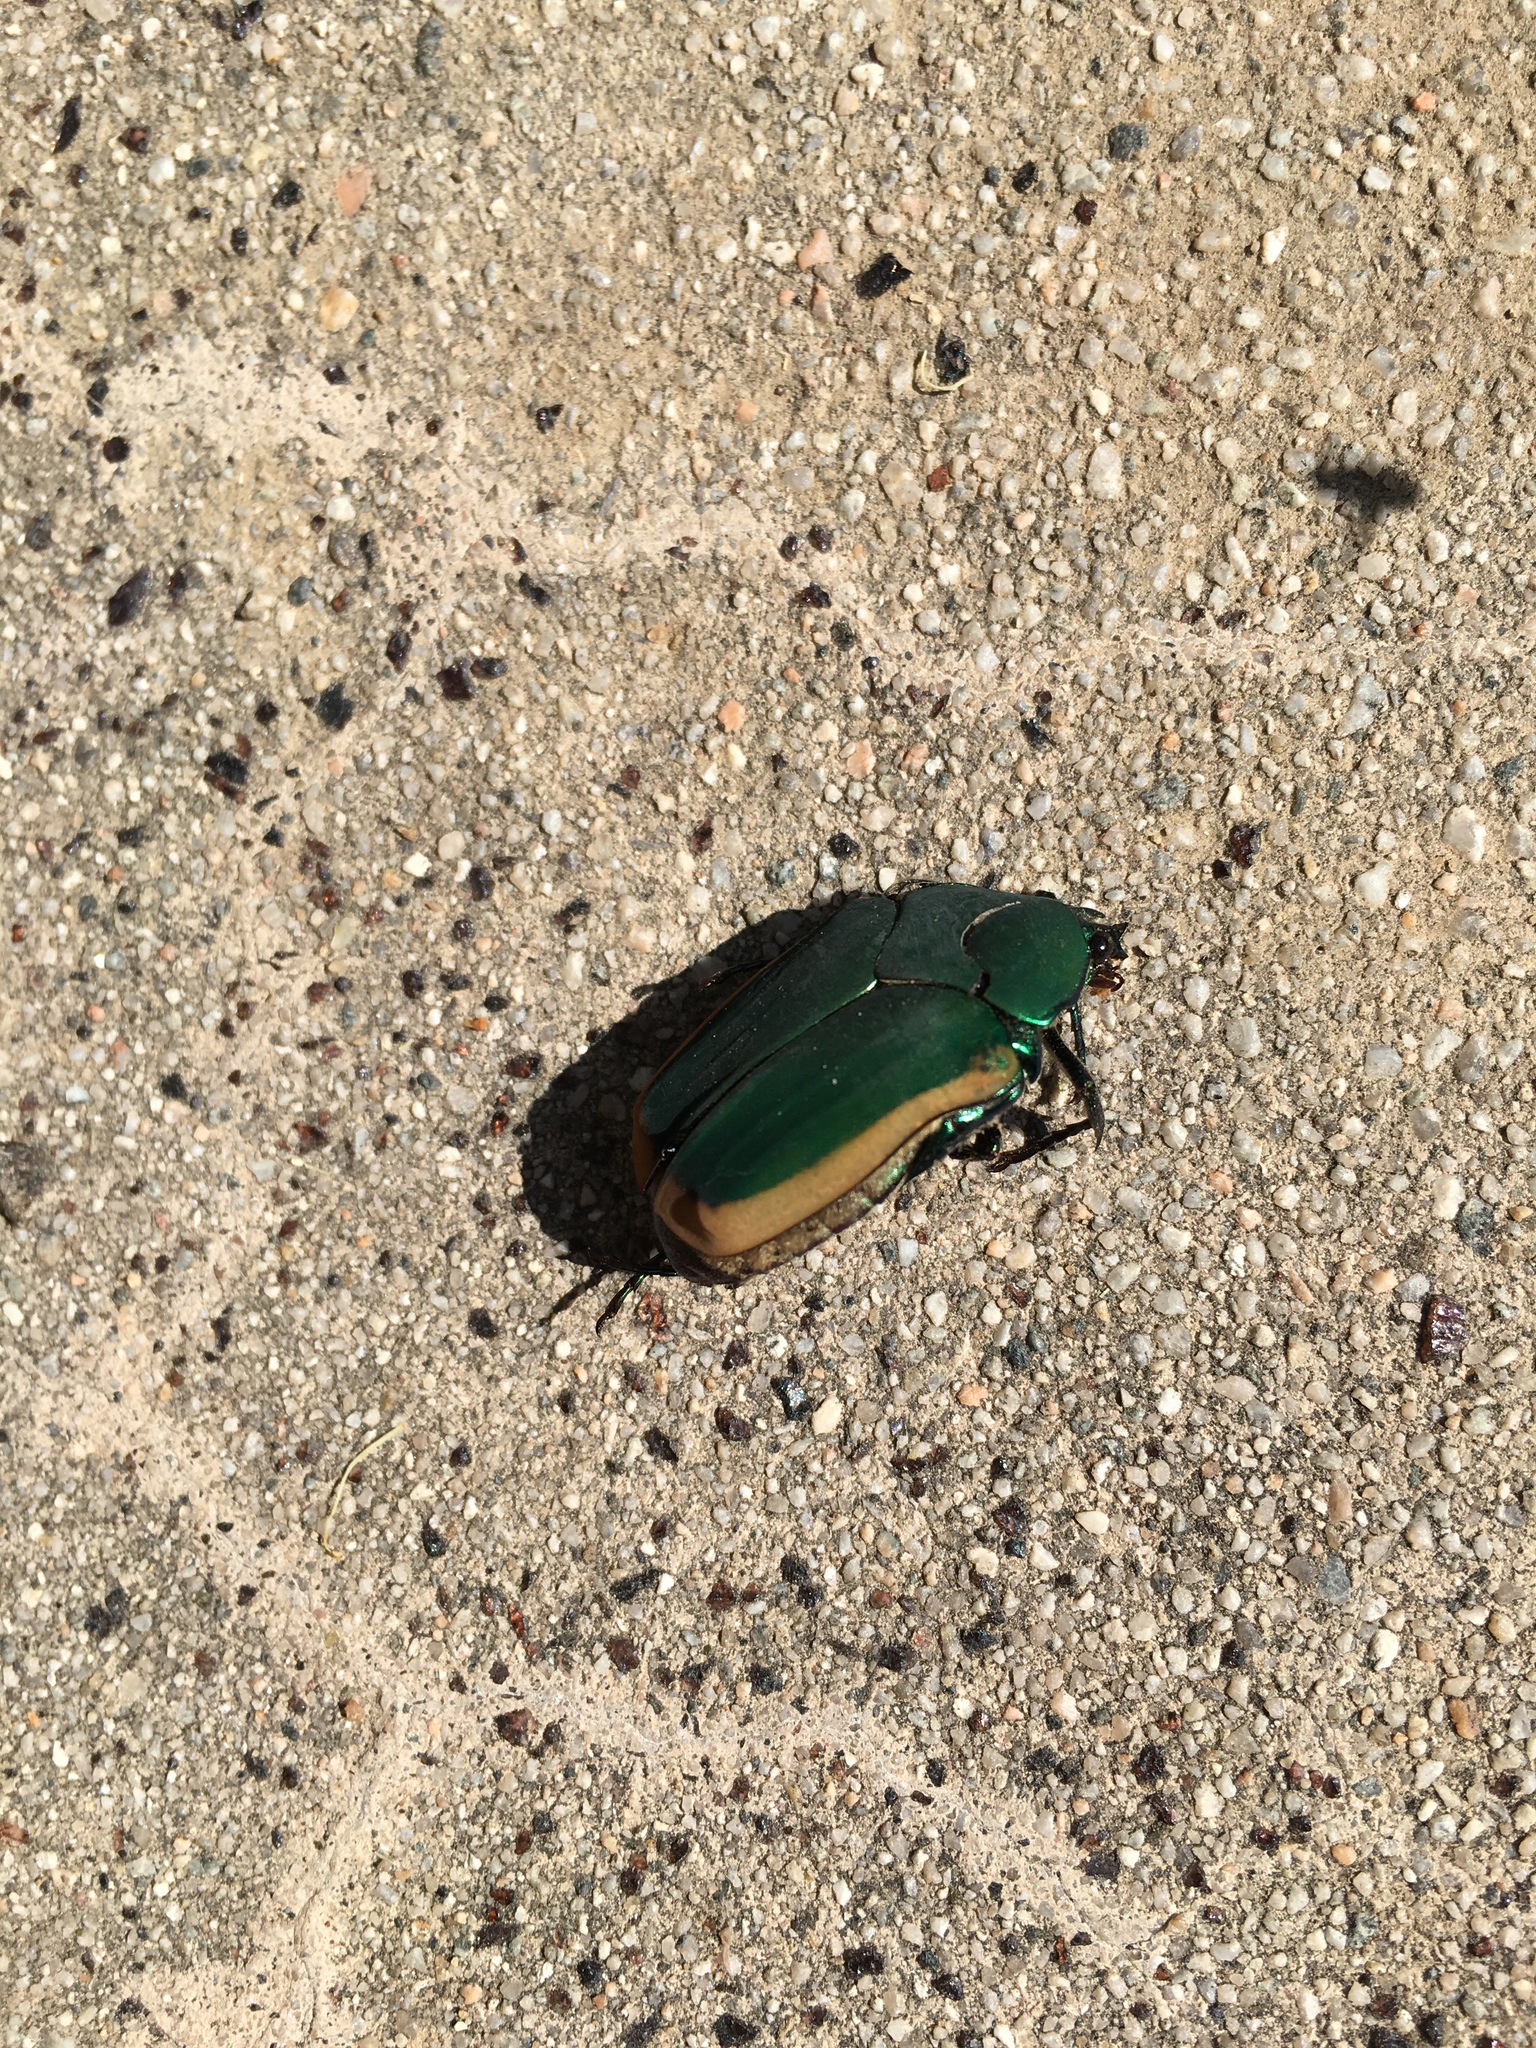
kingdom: Animalia
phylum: Arthropoda
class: Insecta
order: Coleoptera
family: Scarabaeidae
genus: Cotinis
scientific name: Cotinis mutabilis
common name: Figeater beetle
